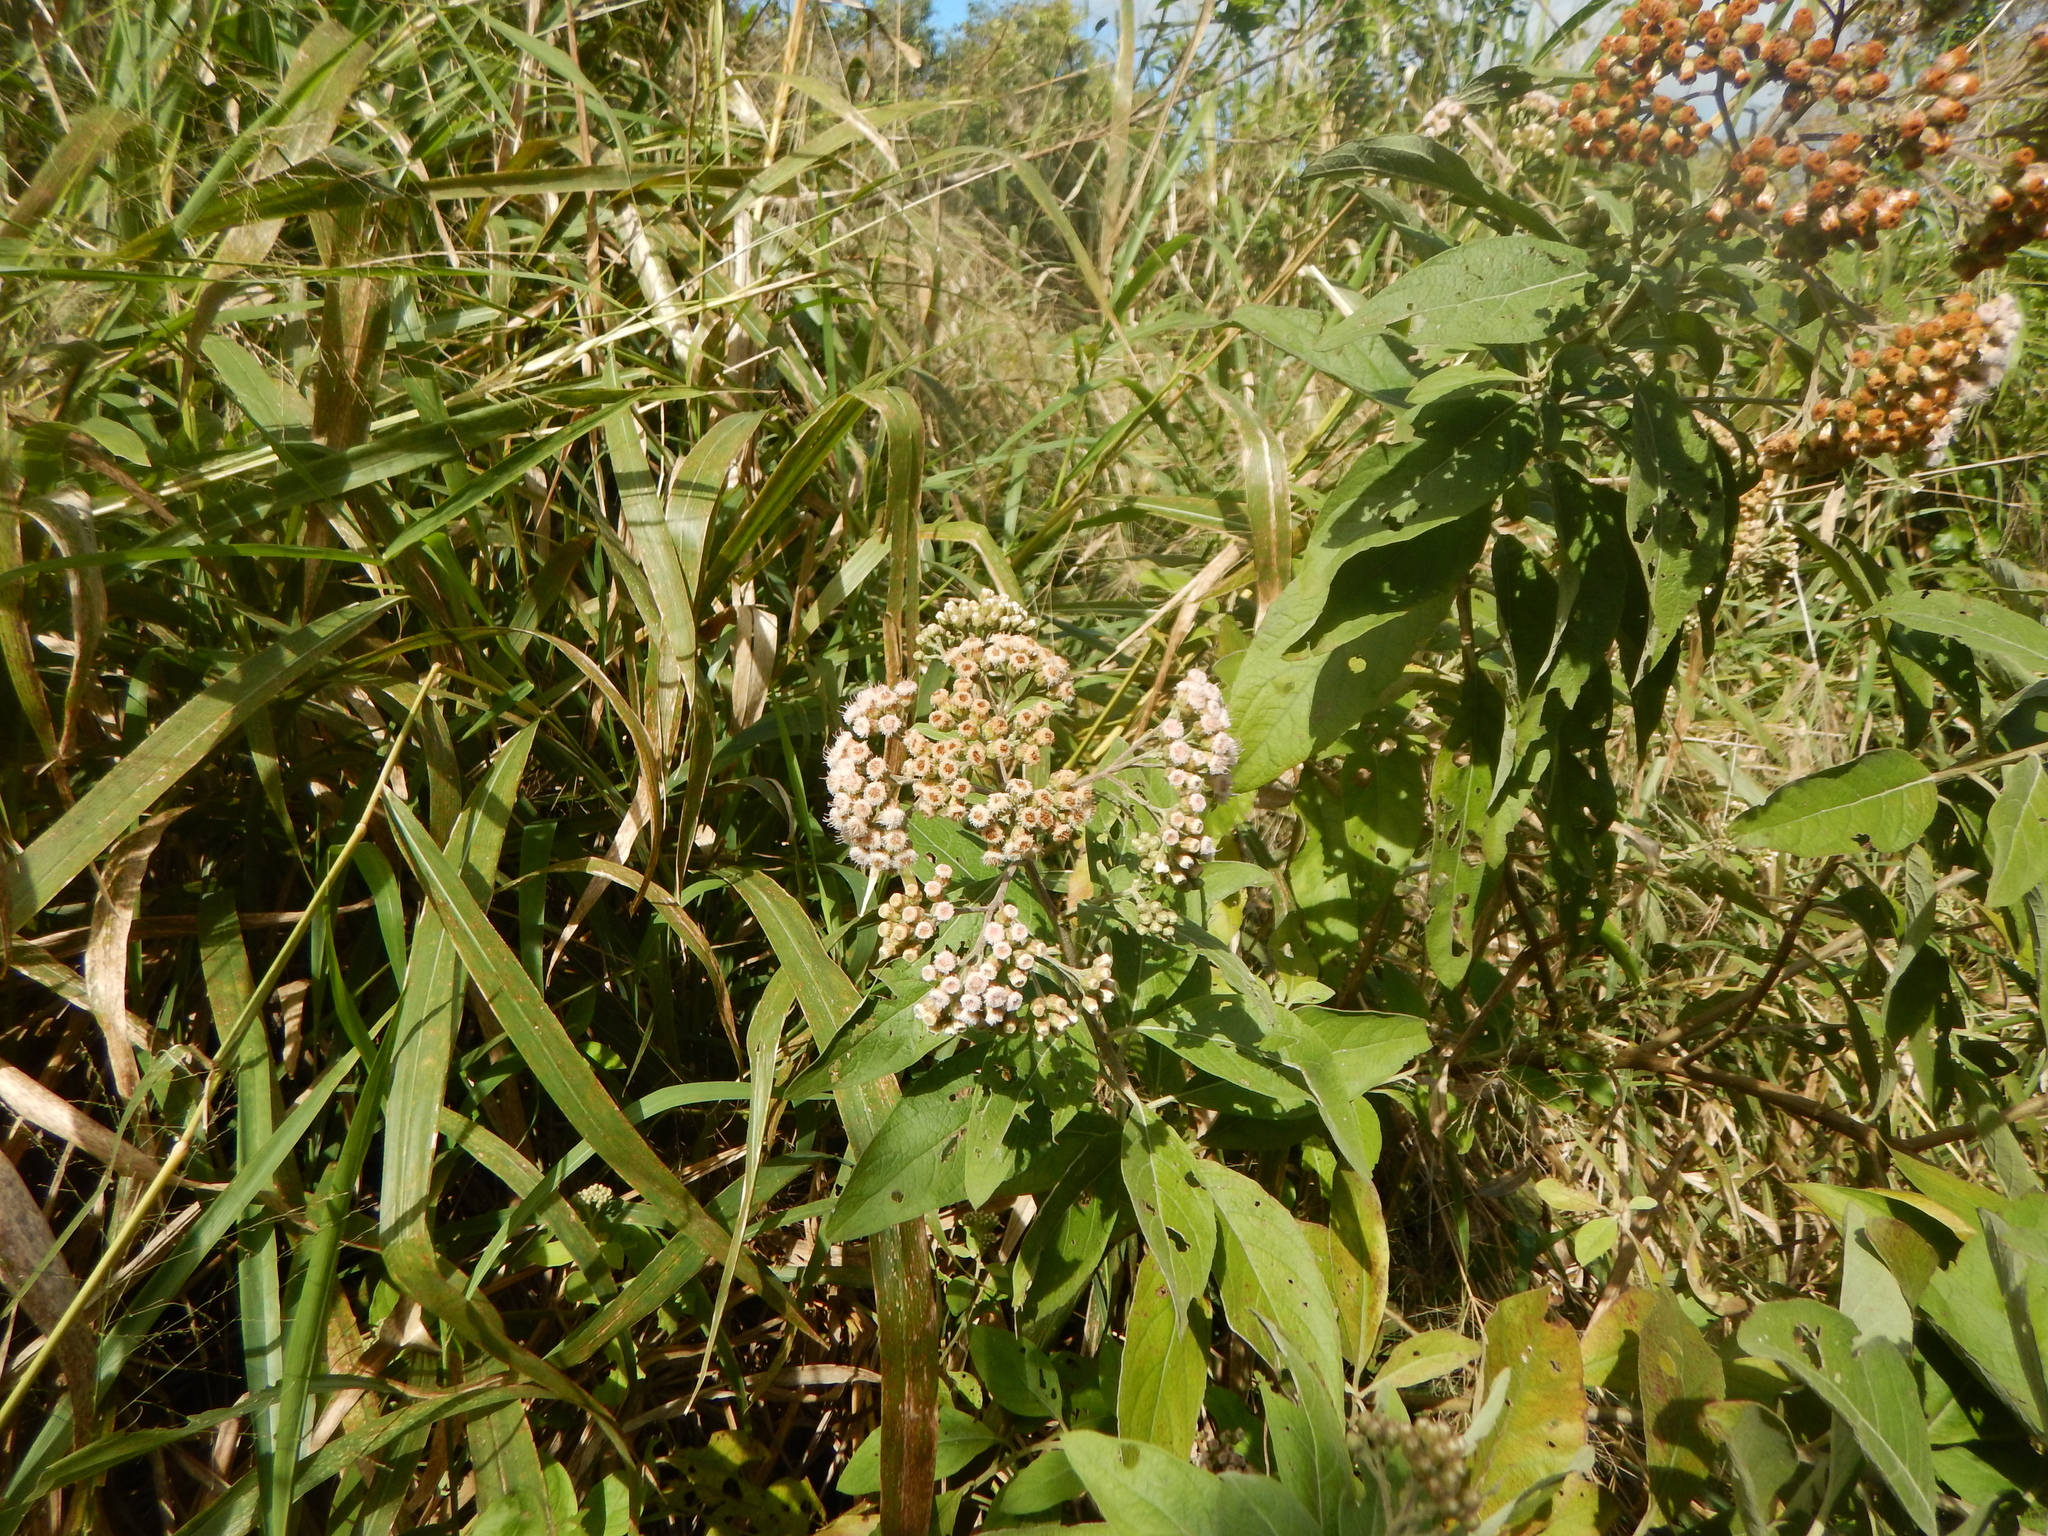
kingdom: Plantae
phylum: Tracheophyta
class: Magnoliopsida
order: Asterales
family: Asteraceae
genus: Pluchea
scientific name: Pluchea indica
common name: Indian fleabane
